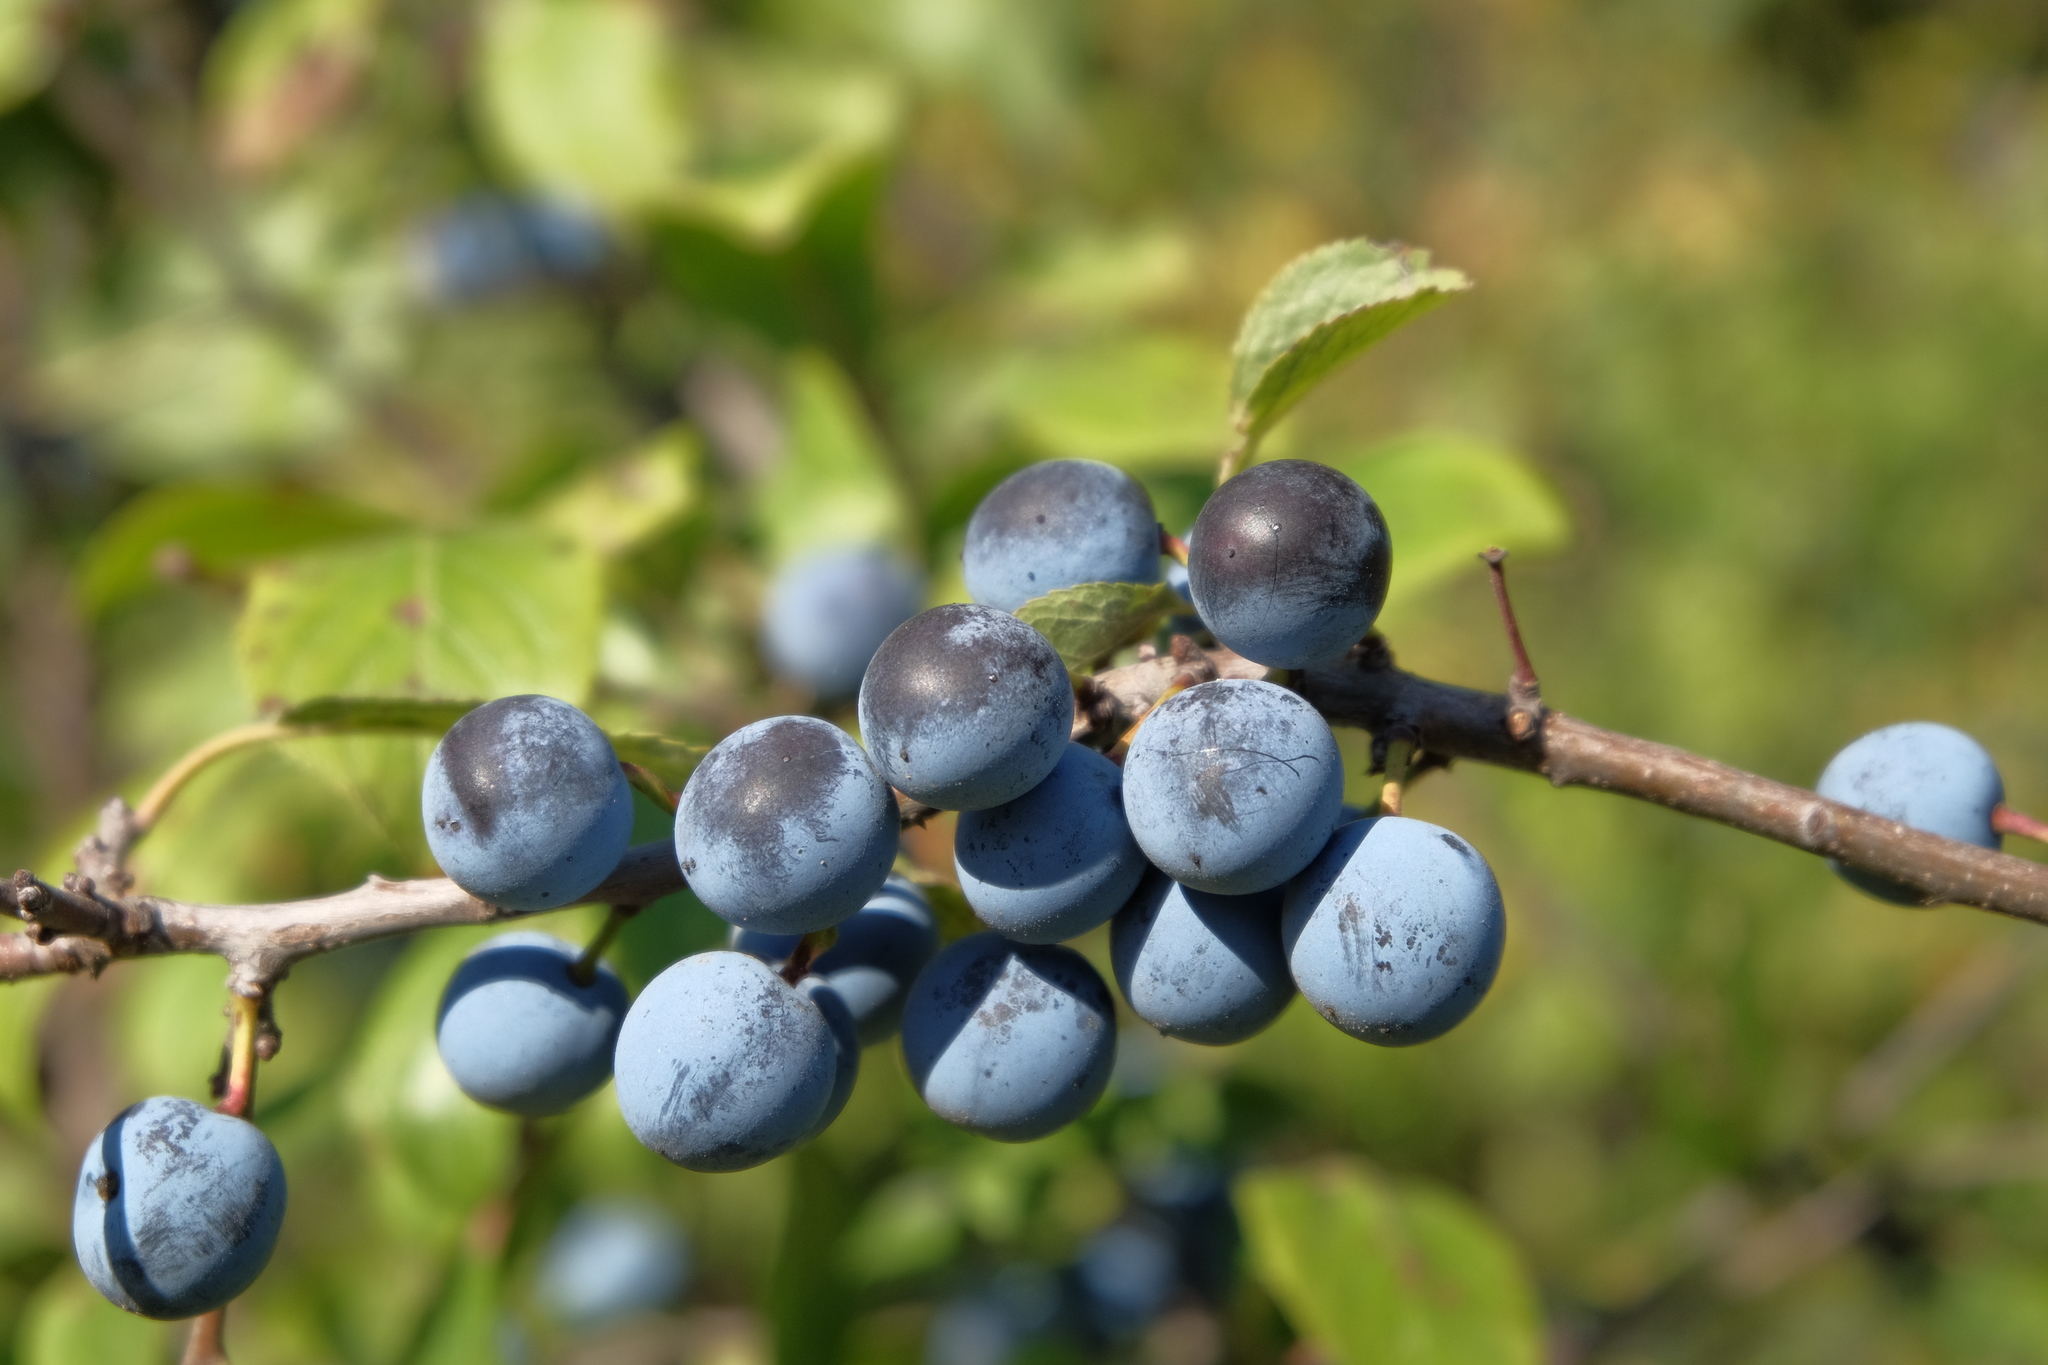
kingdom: Plantae
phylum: Tracheophyta
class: Magnoliopsida
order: Rosales
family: Rosaceae
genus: Prunus
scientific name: Prunus spinosa
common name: Blackthorn
